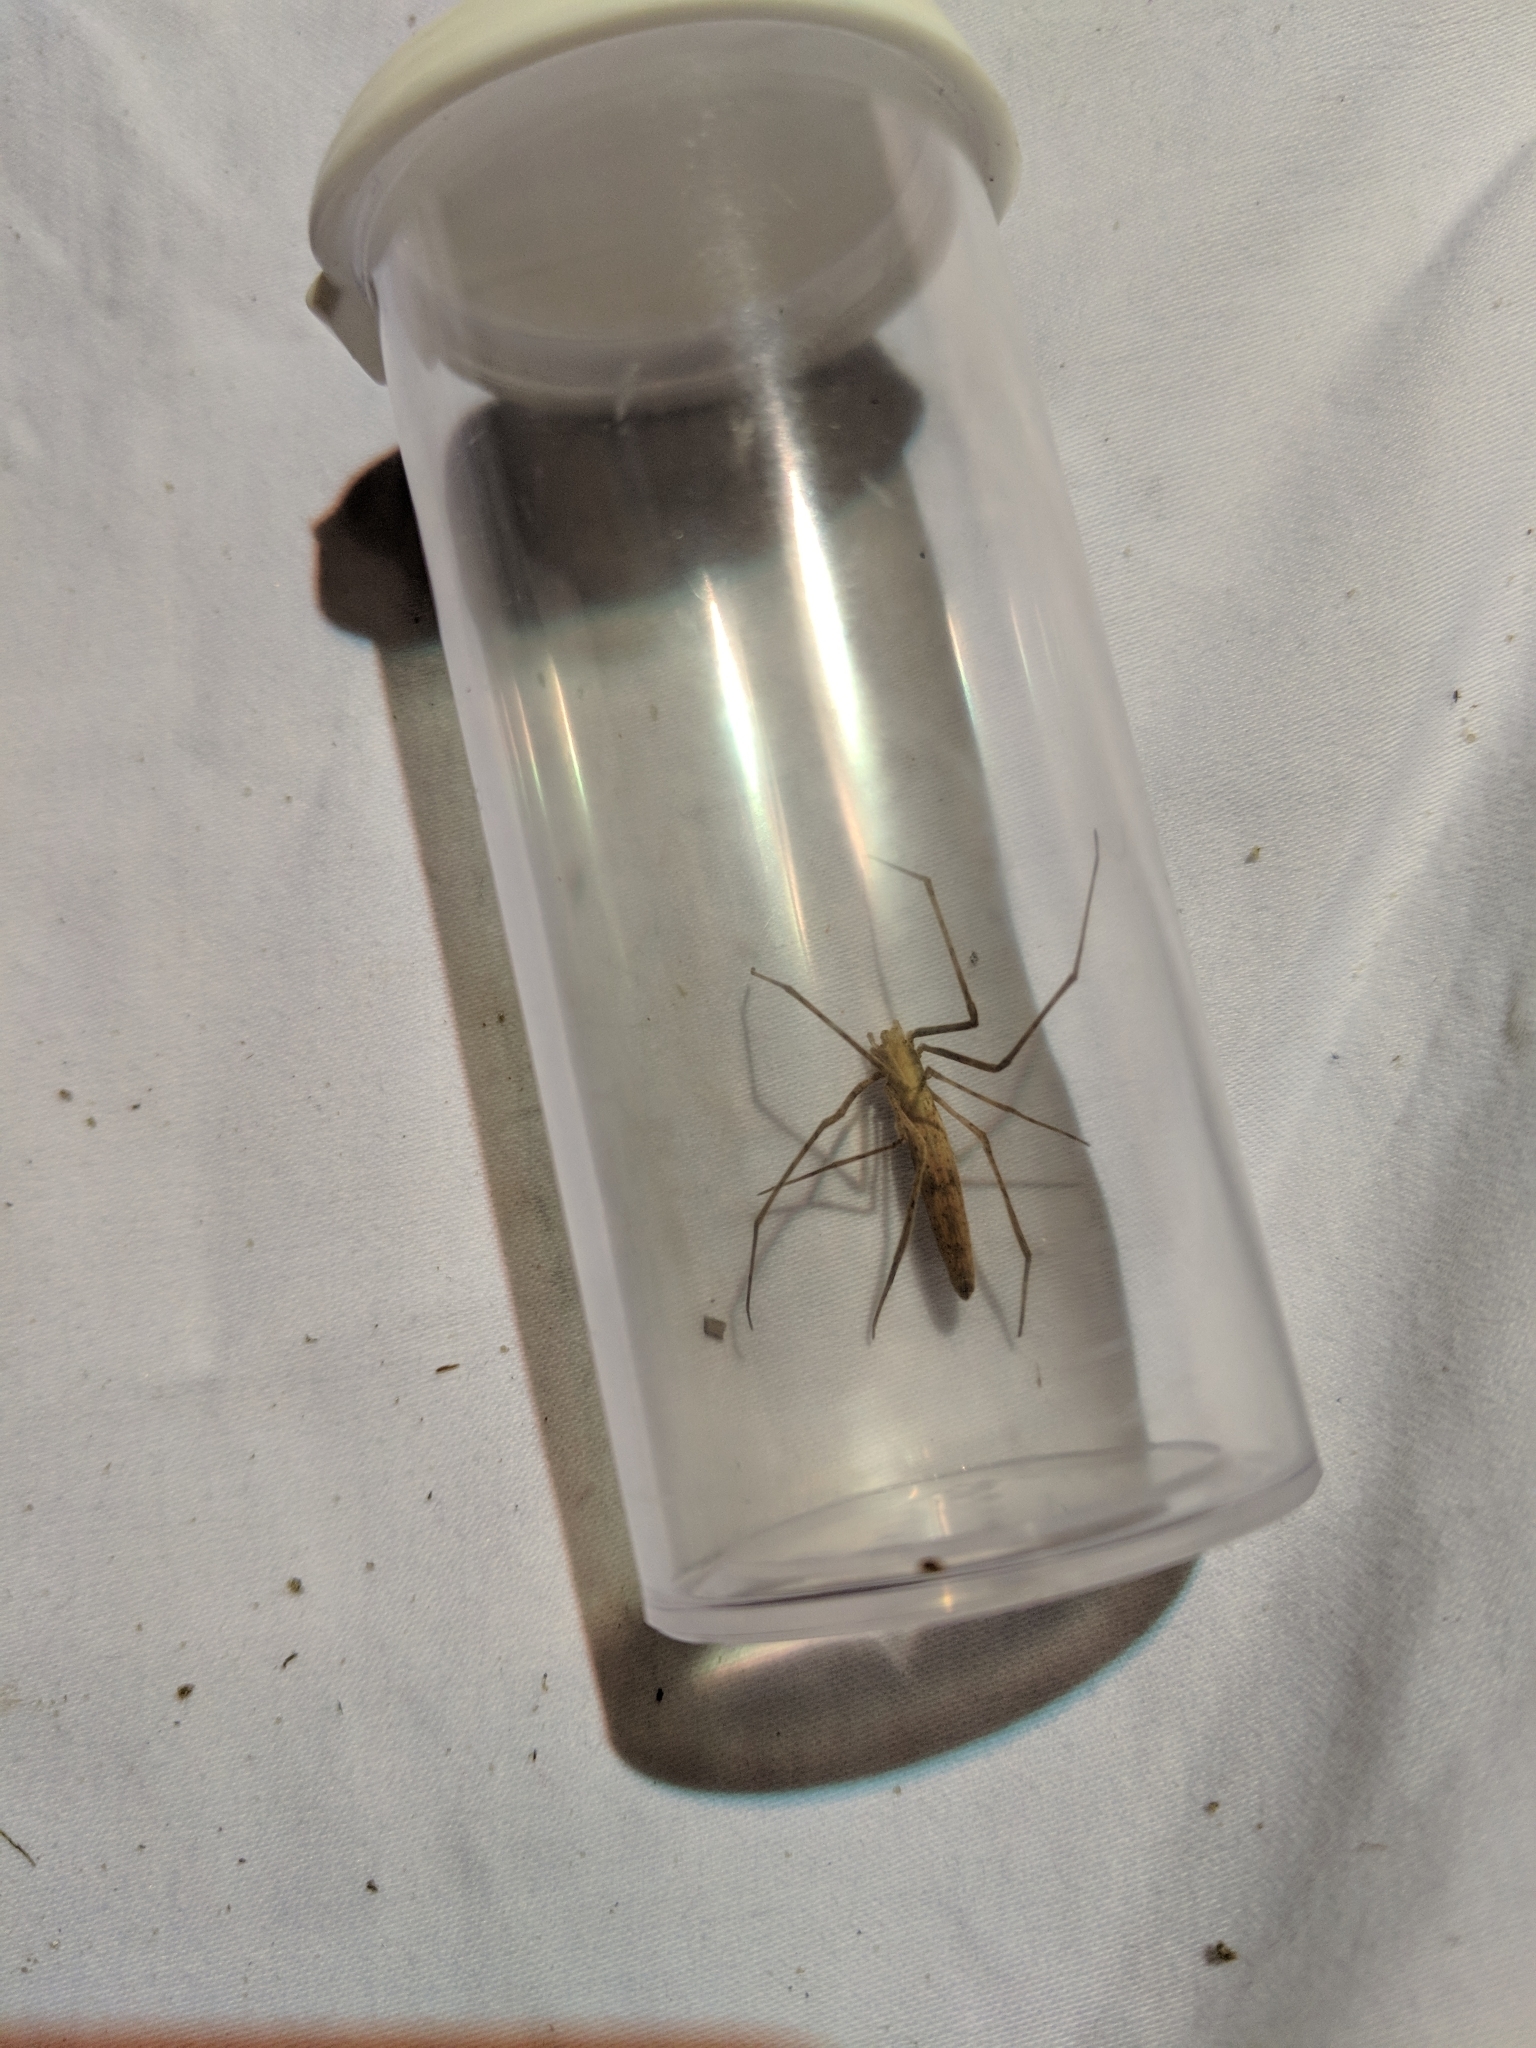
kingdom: Animalia
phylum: Arthropoda
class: Arachnida
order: Araneae
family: Deinopidae
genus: Deinopis
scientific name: Deinopis spinosa
